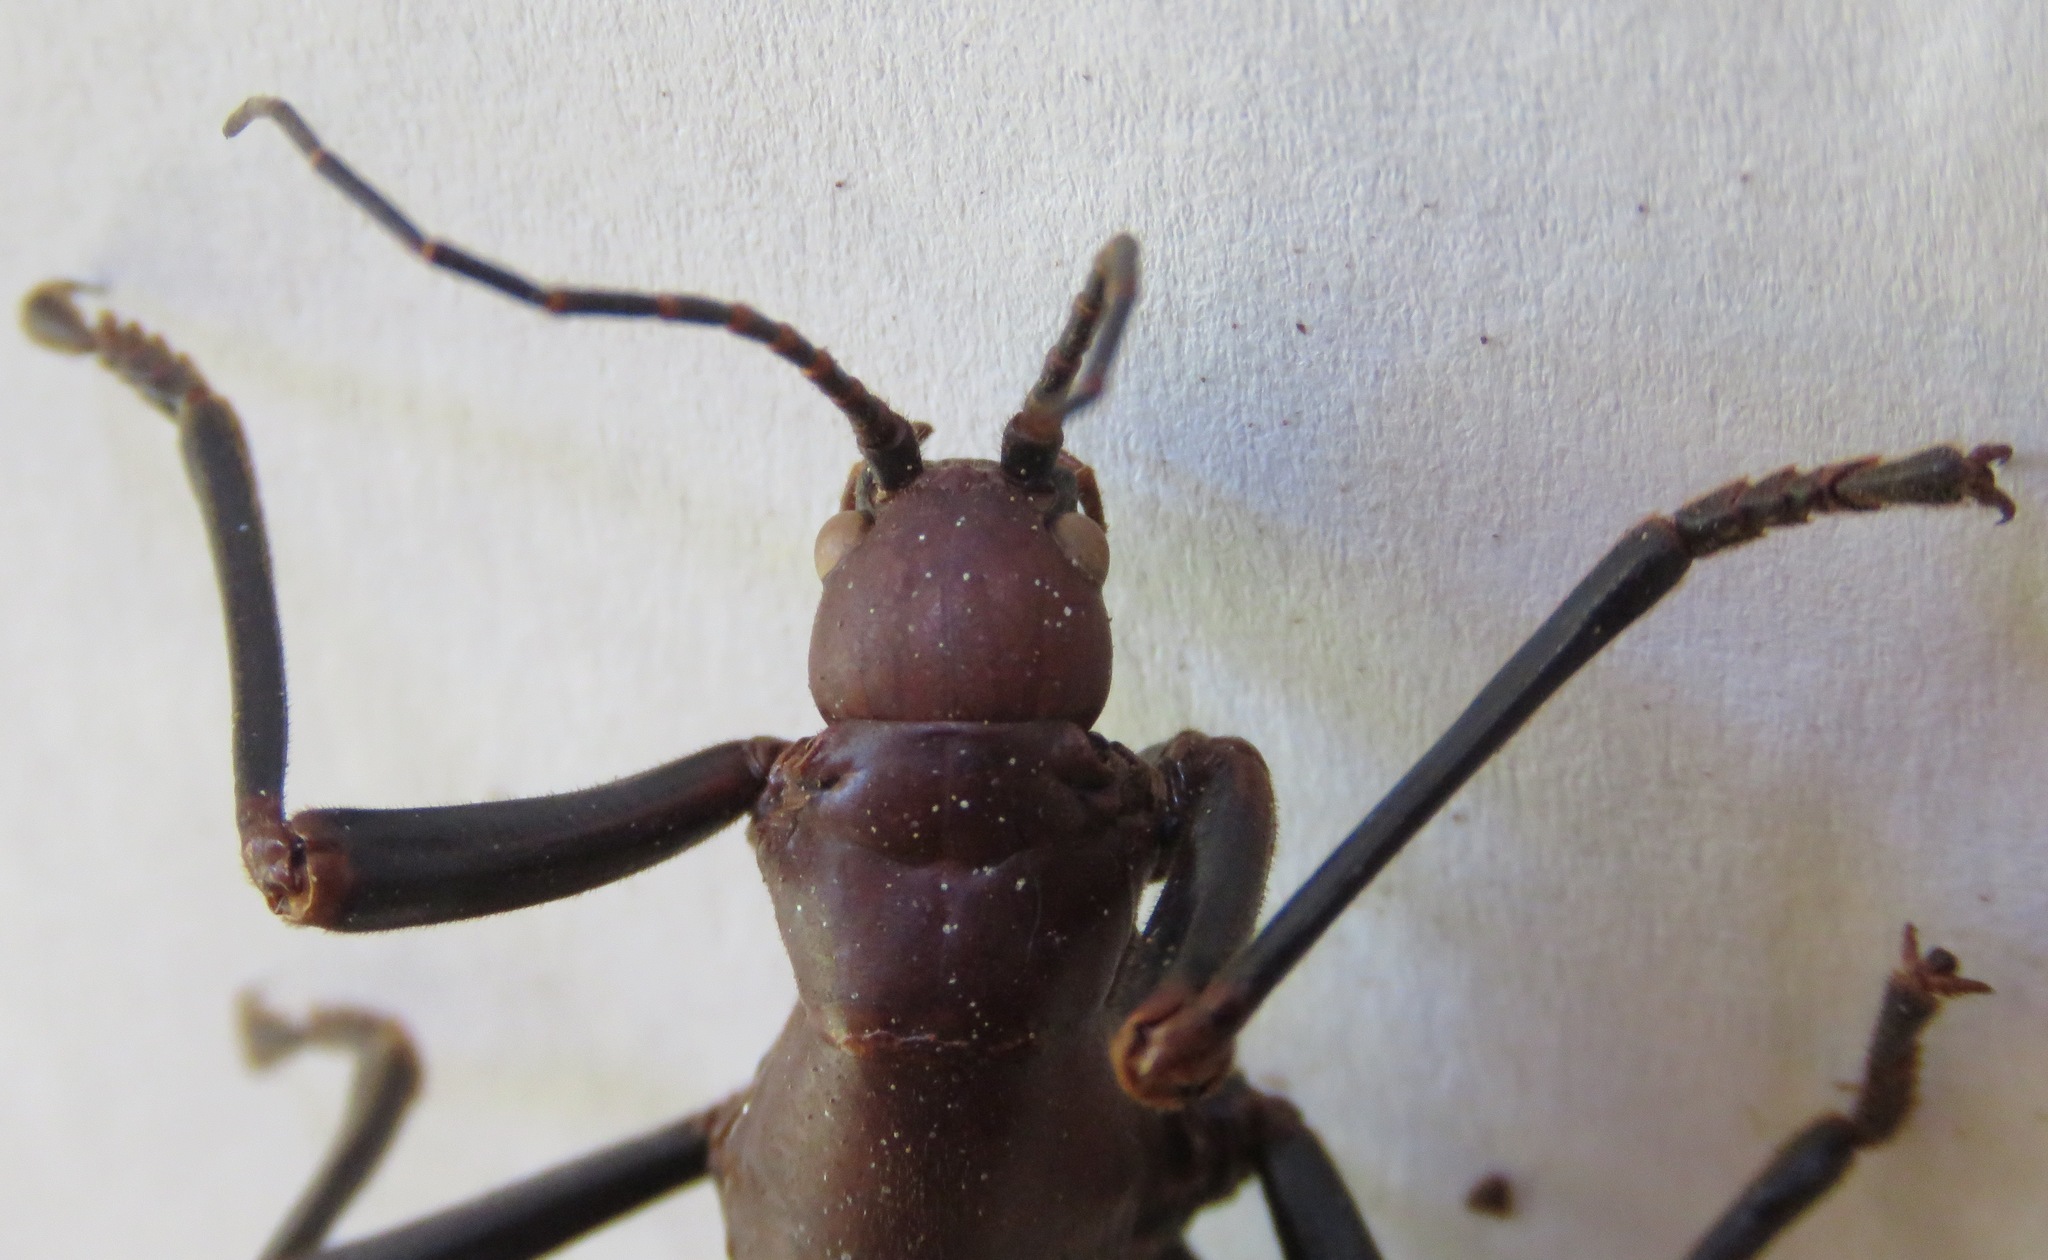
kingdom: Animalia
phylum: Arthropoda
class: Insecta
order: Phasmida
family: Pseudophasmatidae
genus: Autolyca
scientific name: Autolyca herculeana
